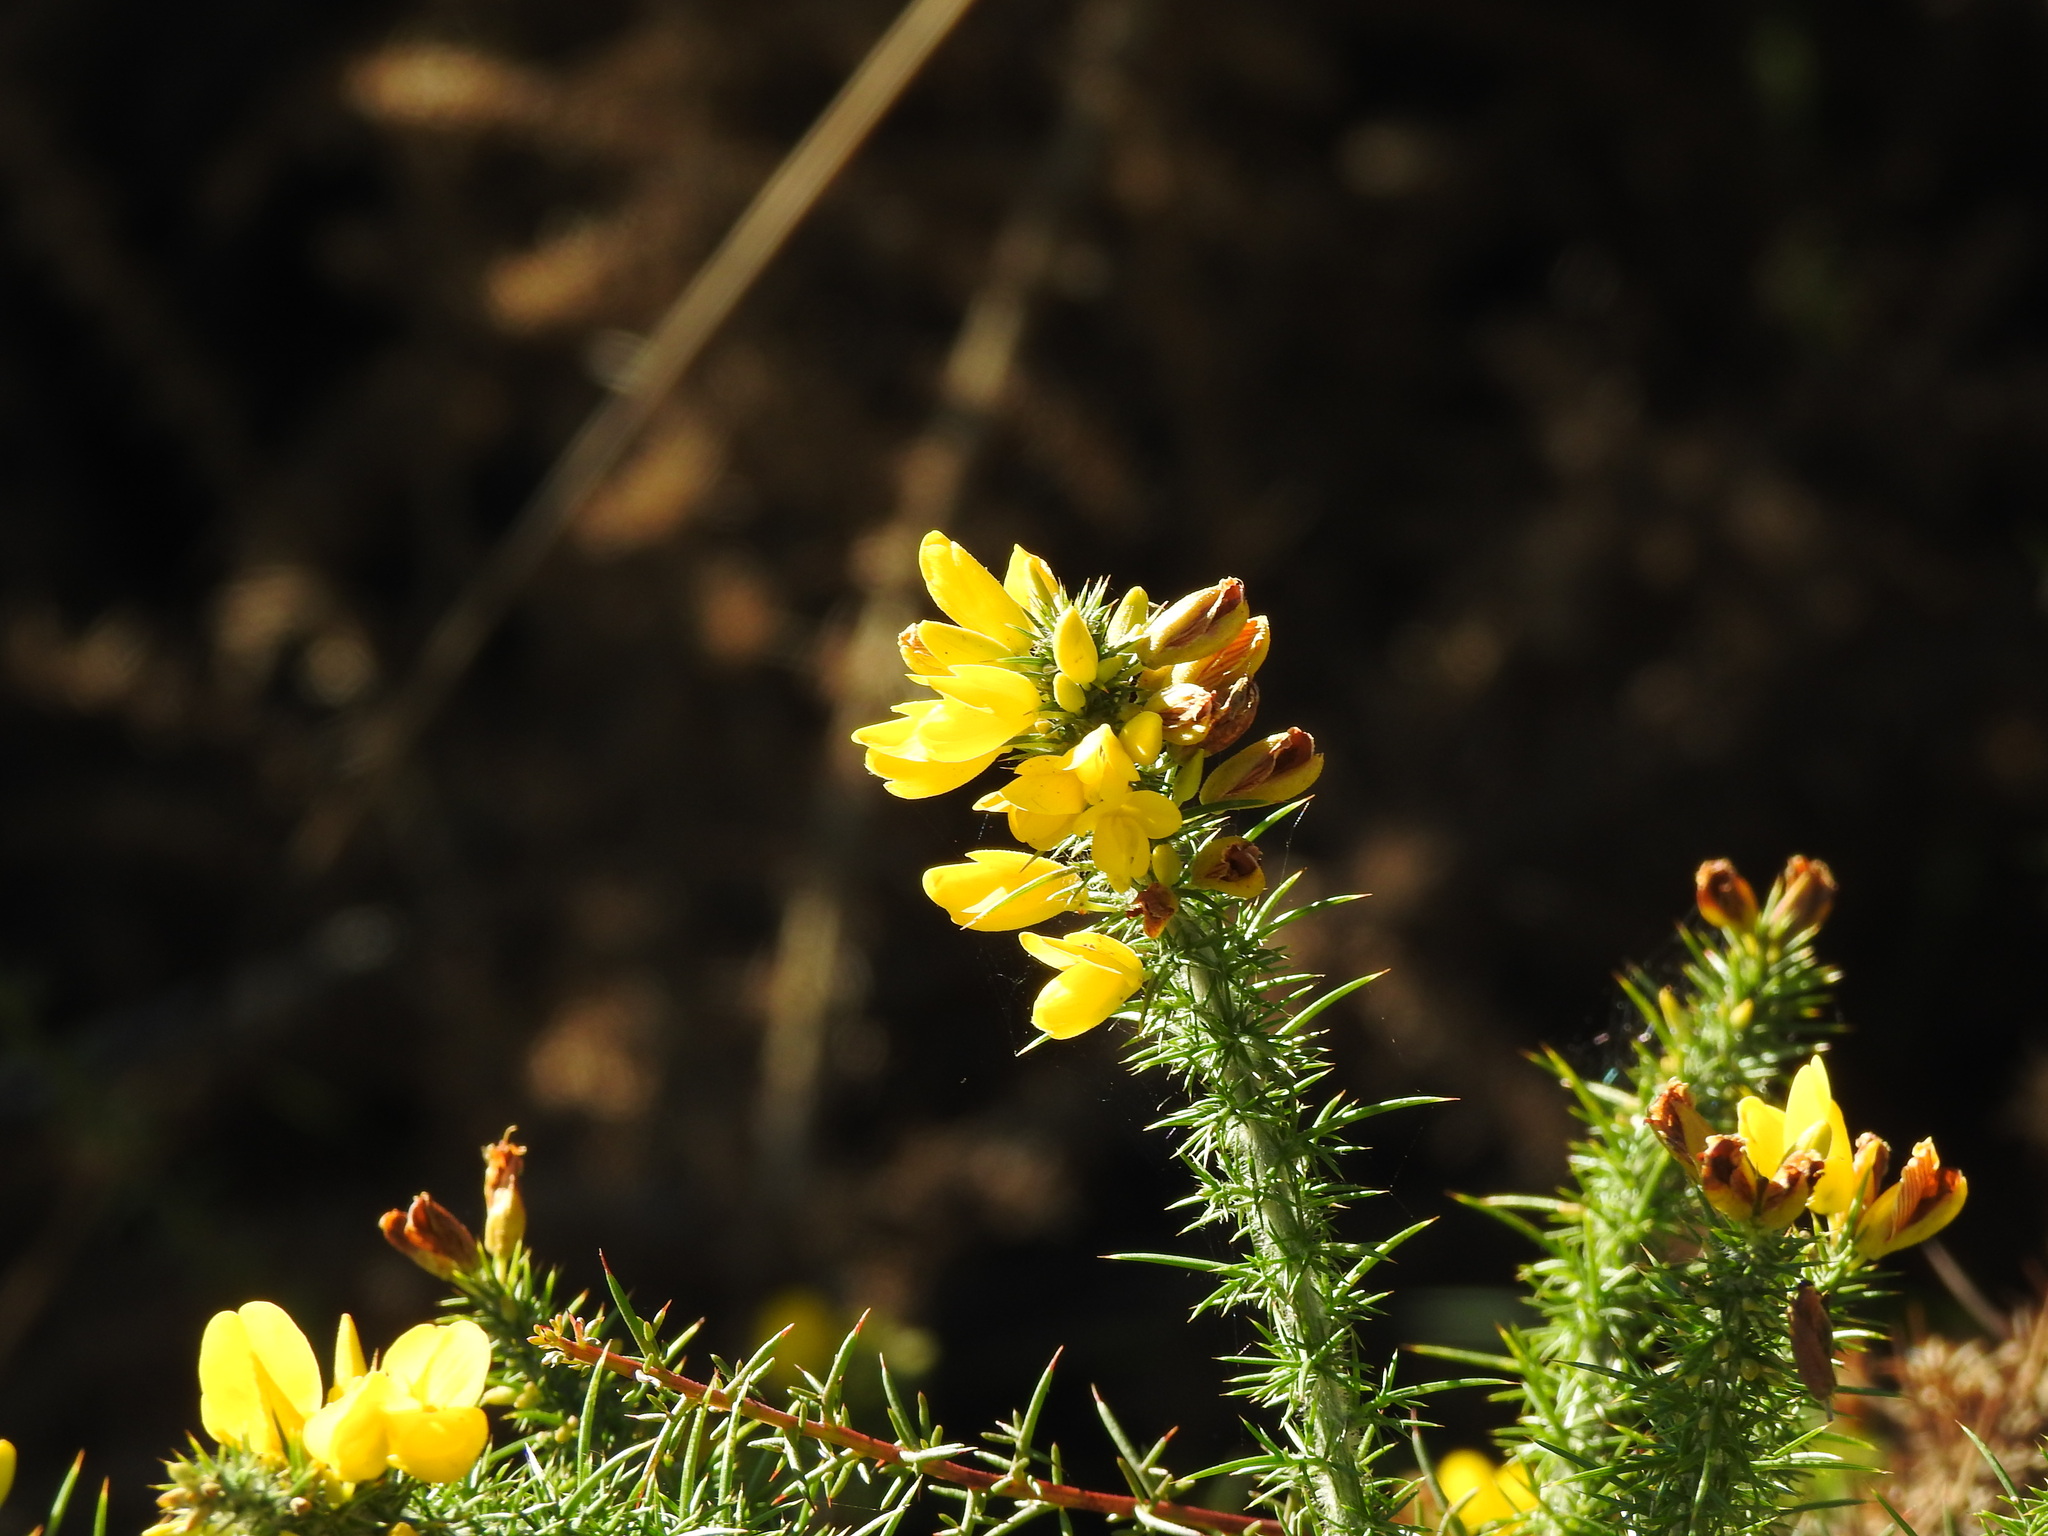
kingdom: Plantae
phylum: Tracheophyta
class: Magnoliopsida
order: Fabales
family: Fabaceae
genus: Ulex
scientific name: Ulex minor
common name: Dwarf gorse
